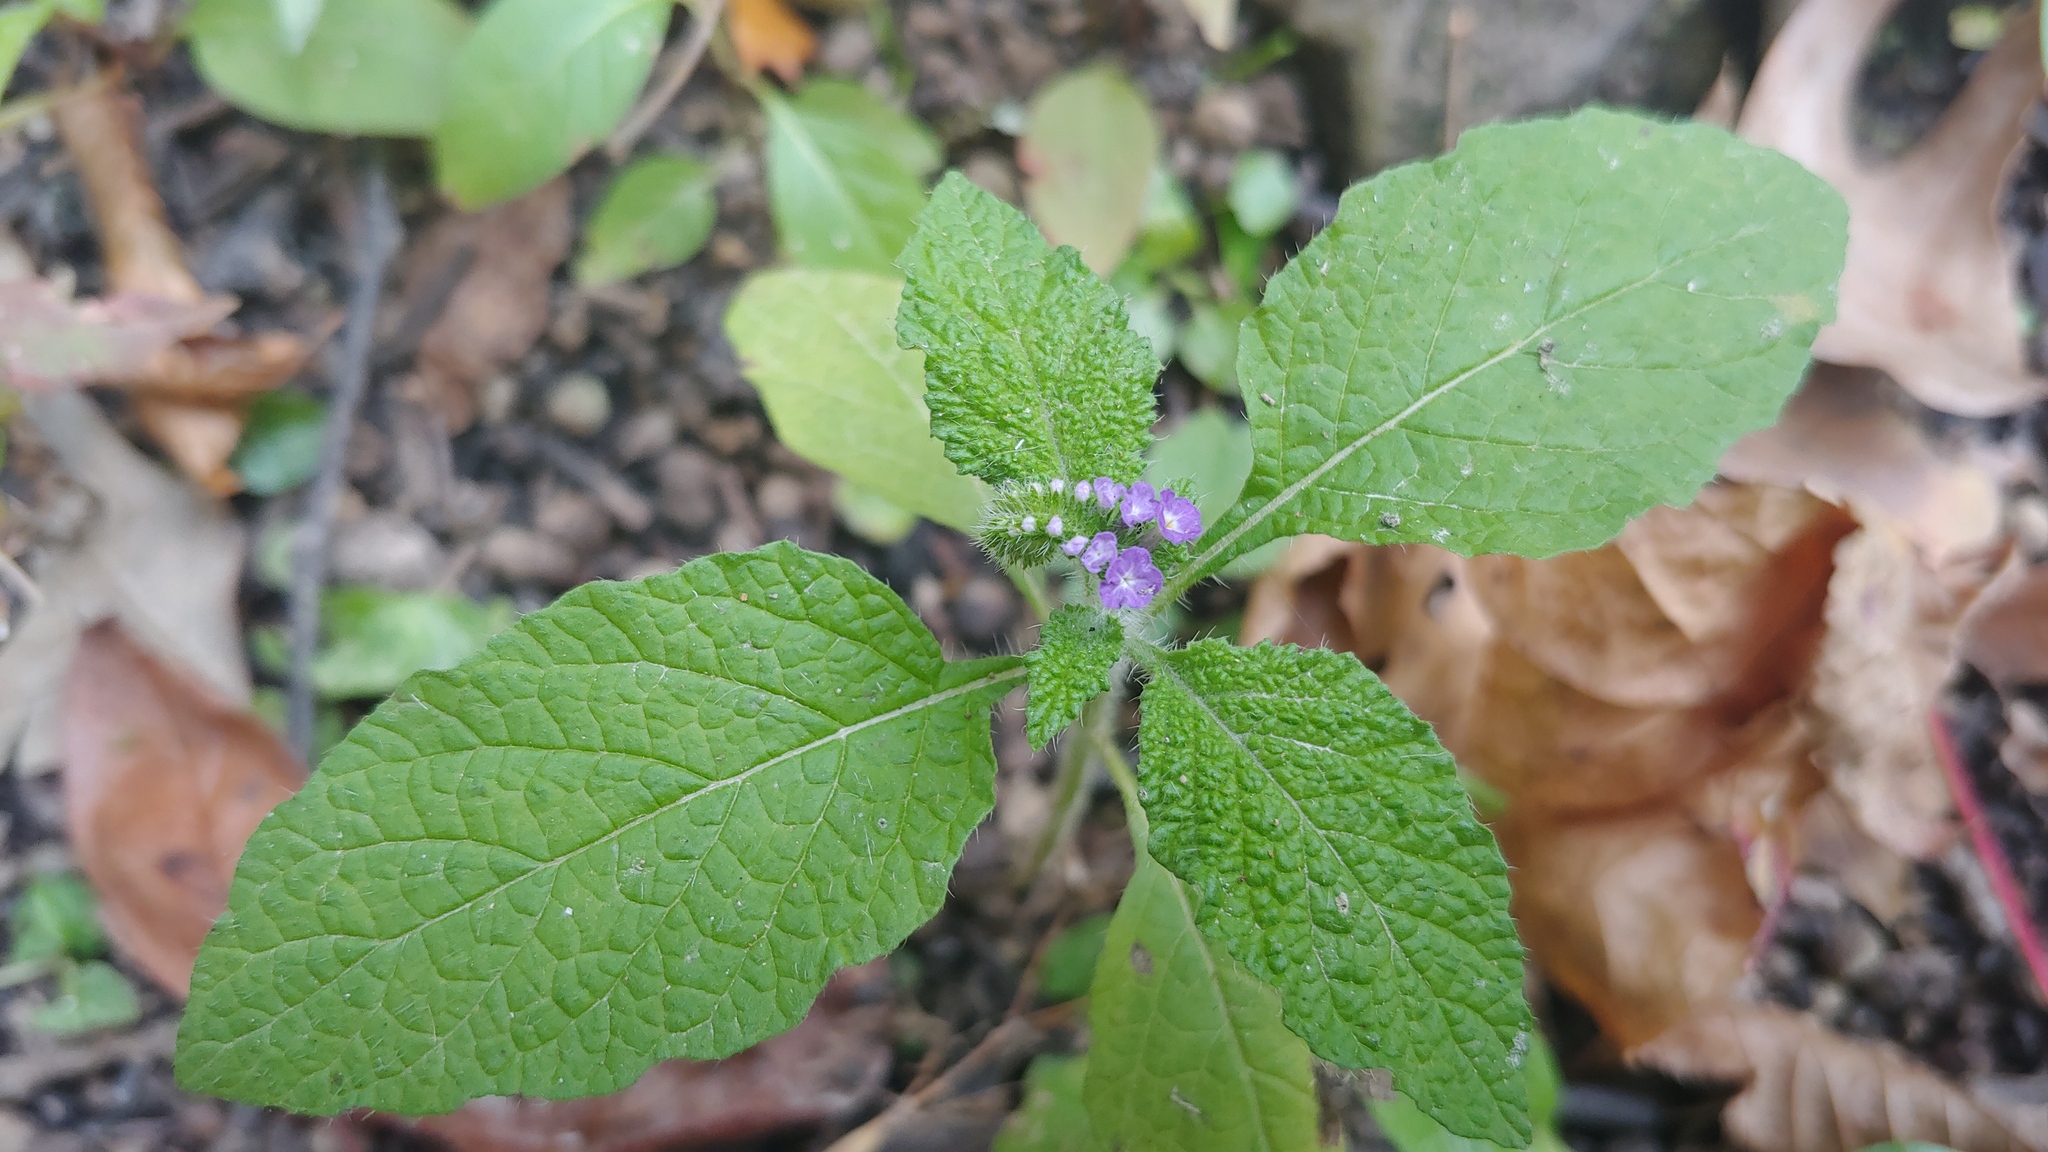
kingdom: Plantae
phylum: Tracheophyta
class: Magnoliopsida
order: Boraginales
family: Heliotropiaceae
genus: Heliotropium
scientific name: Heliotropium indicum
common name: Indian heliotrope
